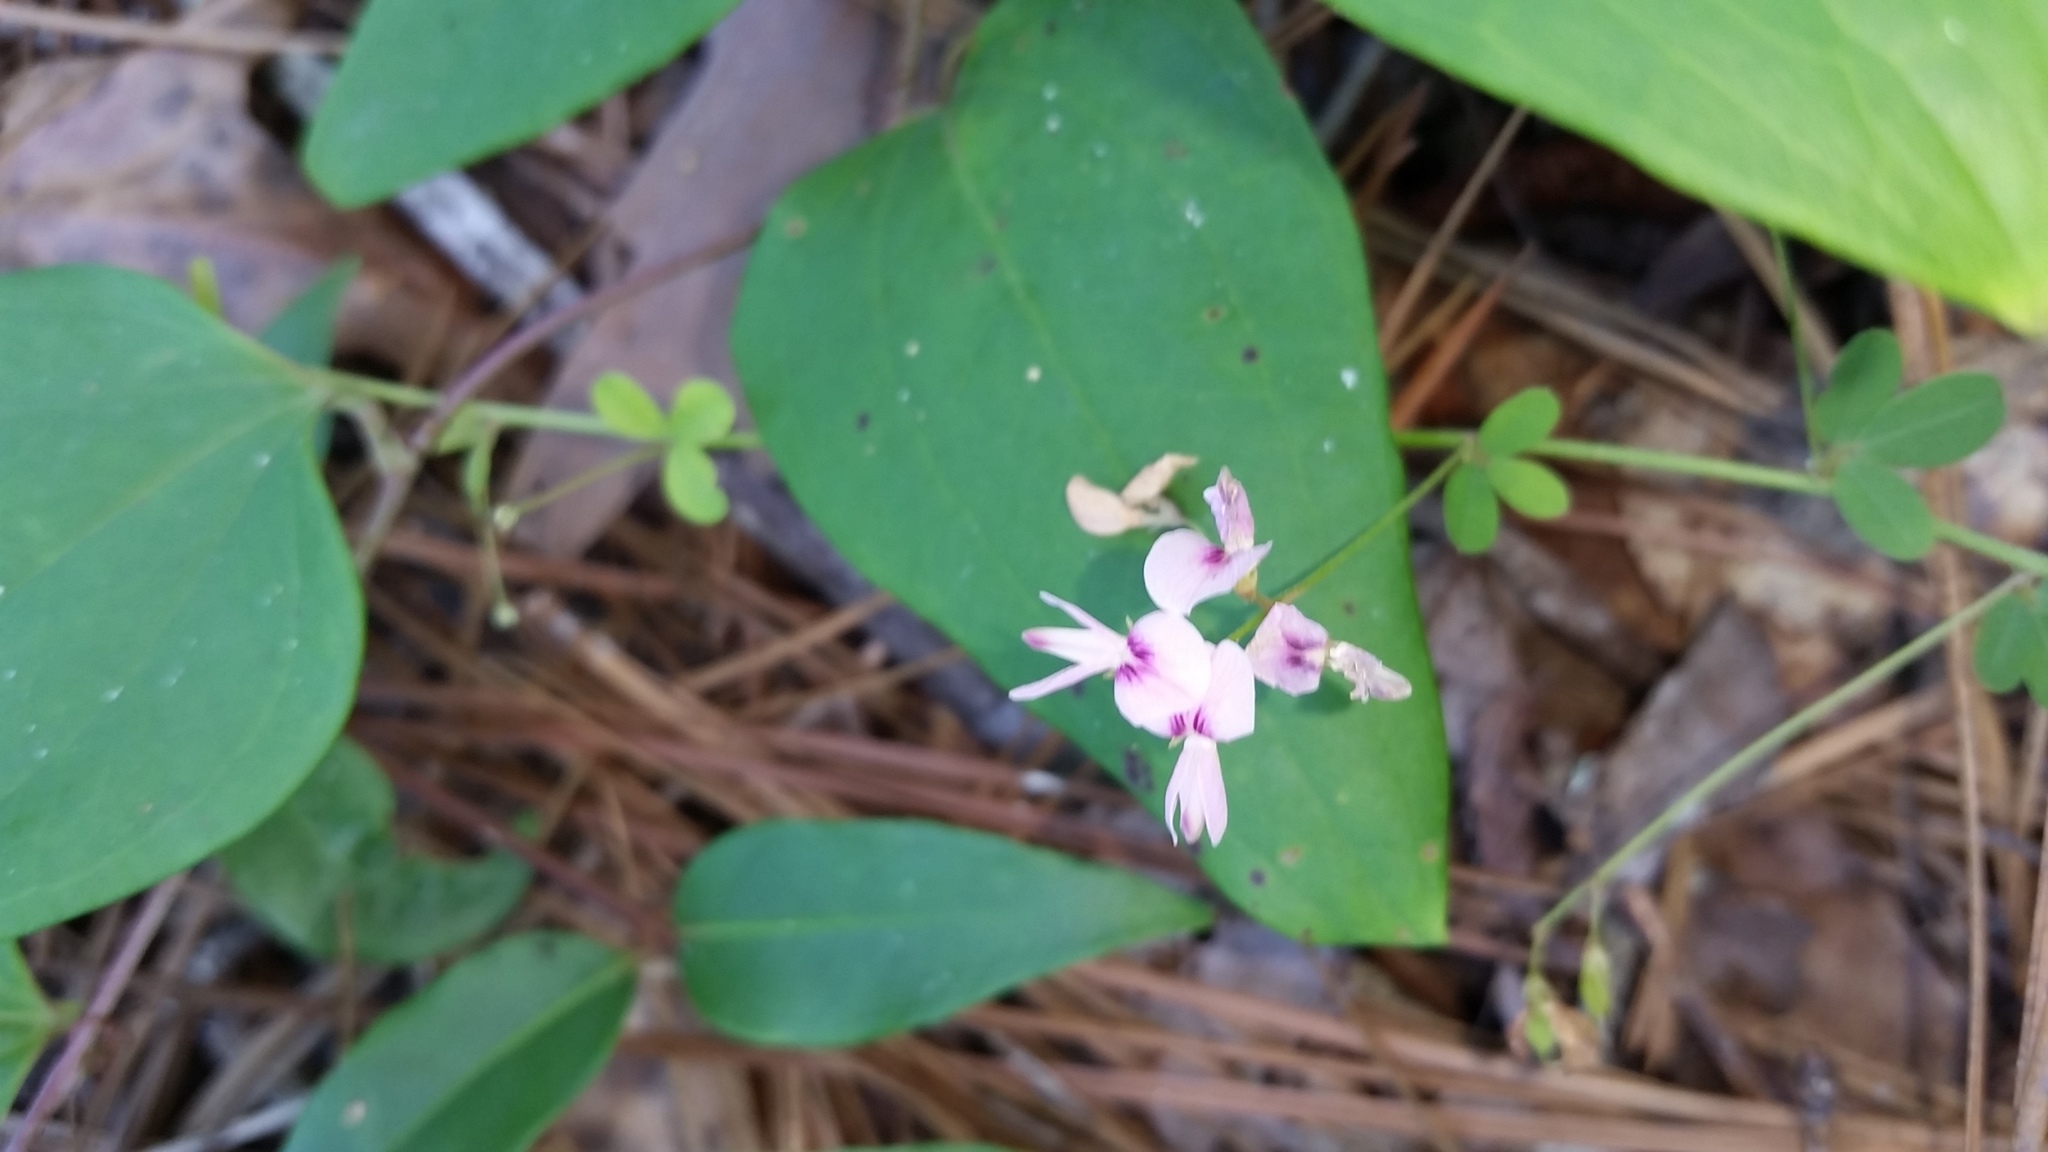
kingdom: Plantae
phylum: Tracheophyta
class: Magnoliopsida
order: Fabales
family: Fabaceae
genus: Lespedeza
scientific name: Lespedeza repens
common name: Creeping bush-clover
